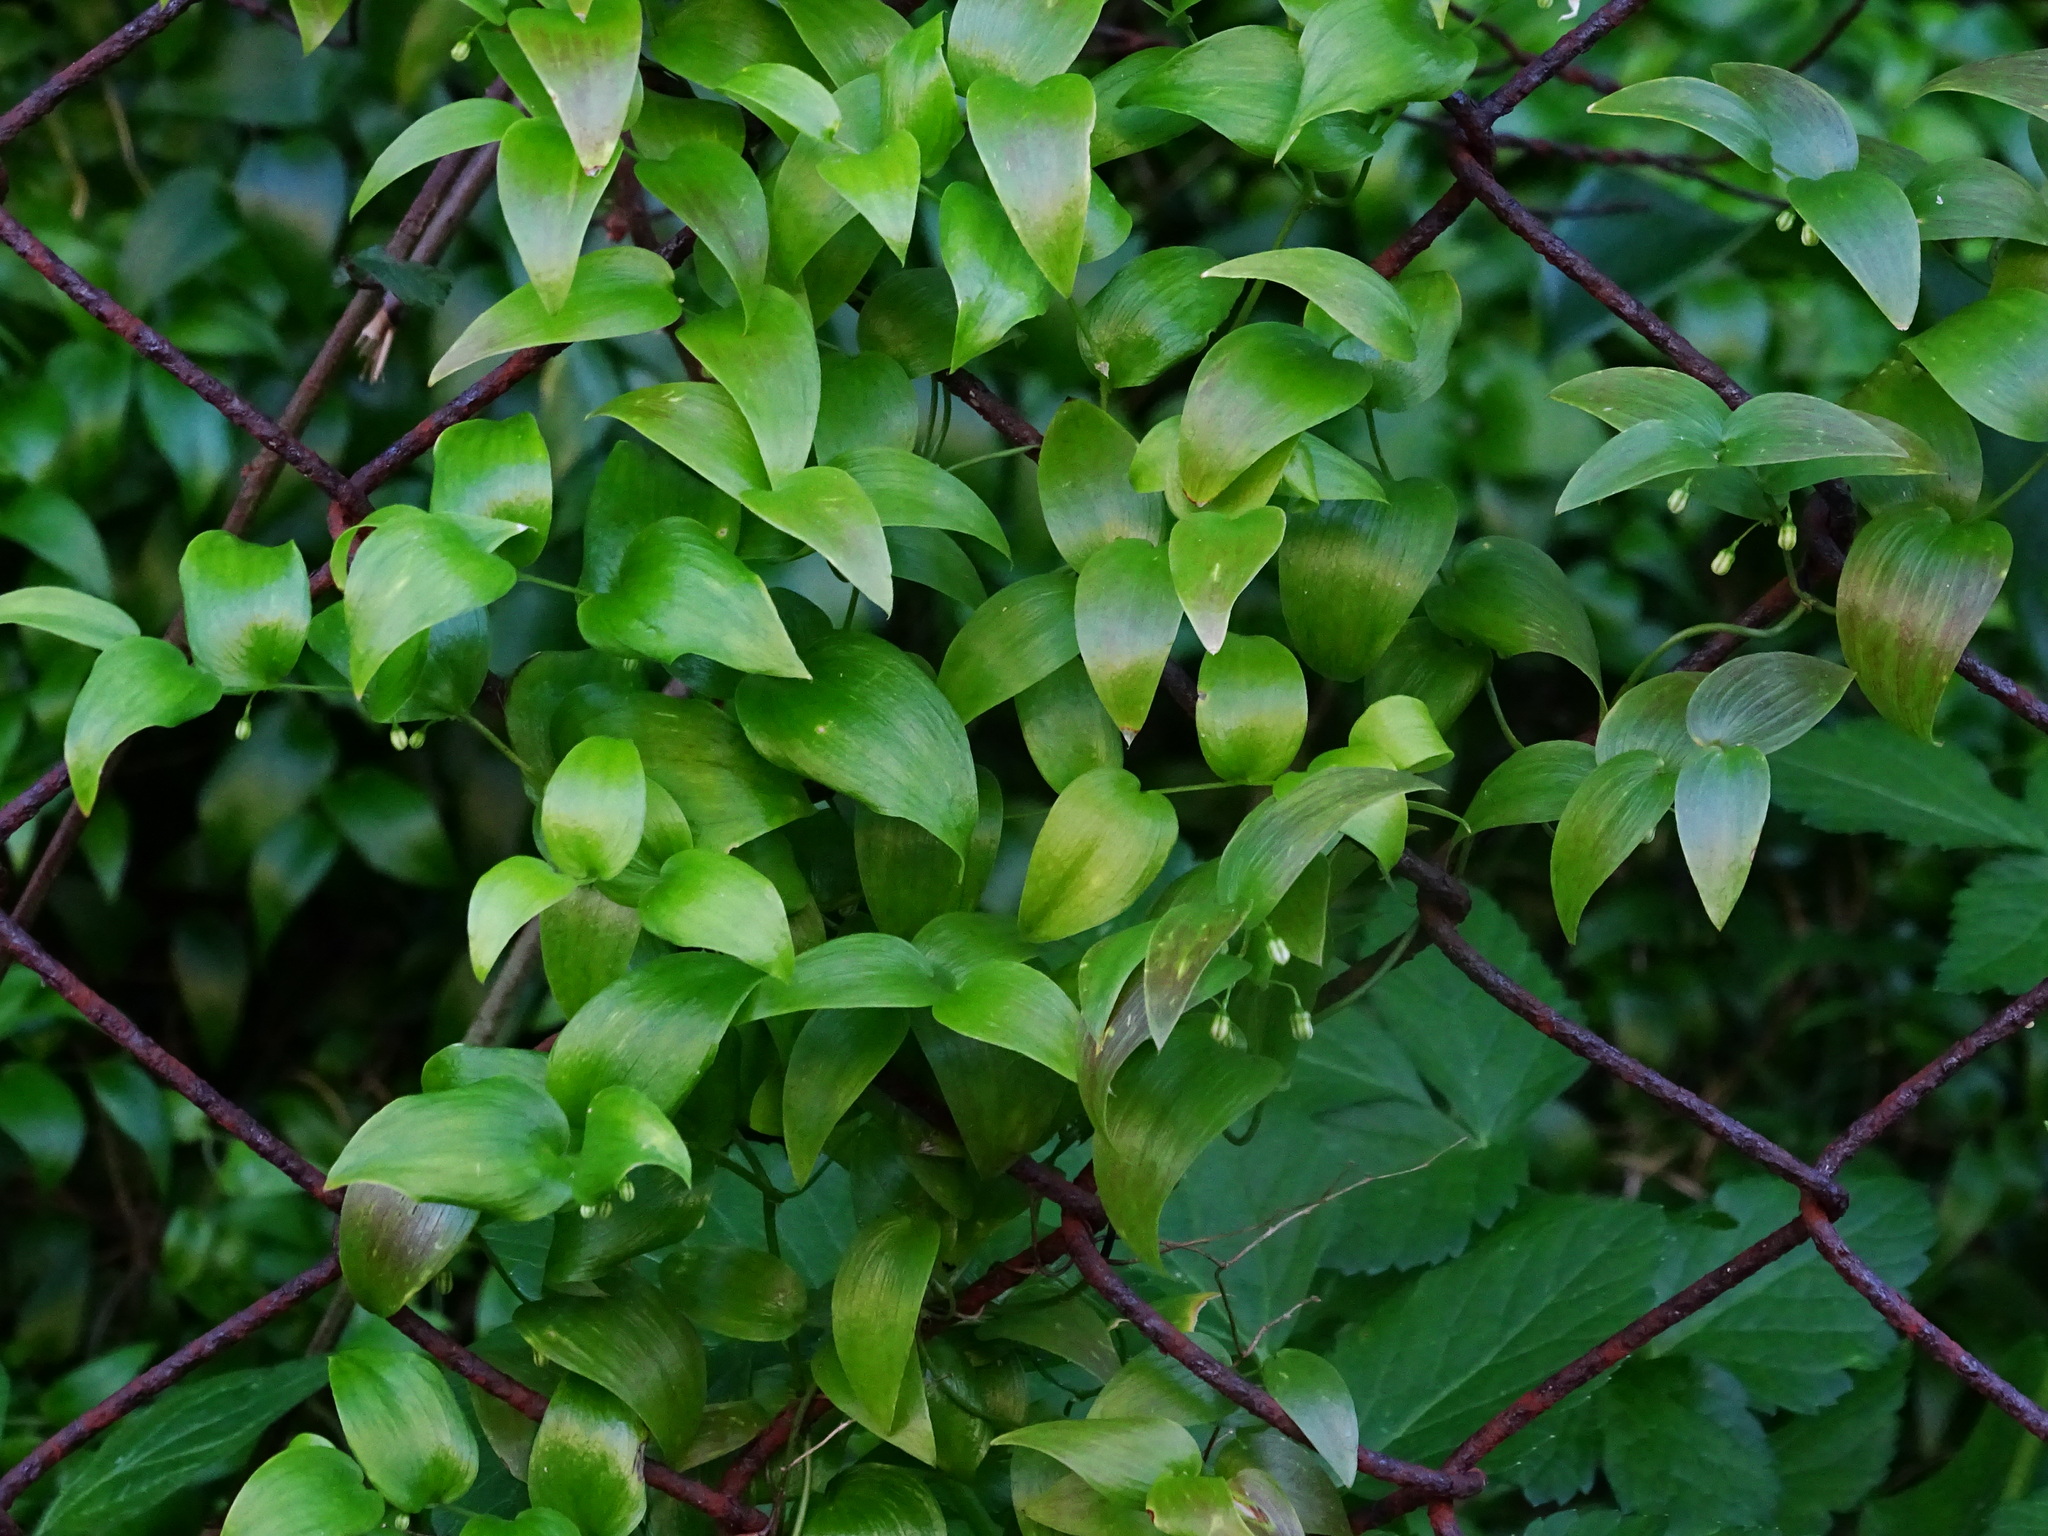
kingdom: Plantae
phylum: Tracheophyta
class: Liliopsida
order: Asparagales
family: Asparagaceae
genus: Asparagus
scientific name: Asparagus asparagoides
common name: African asparagus fern
